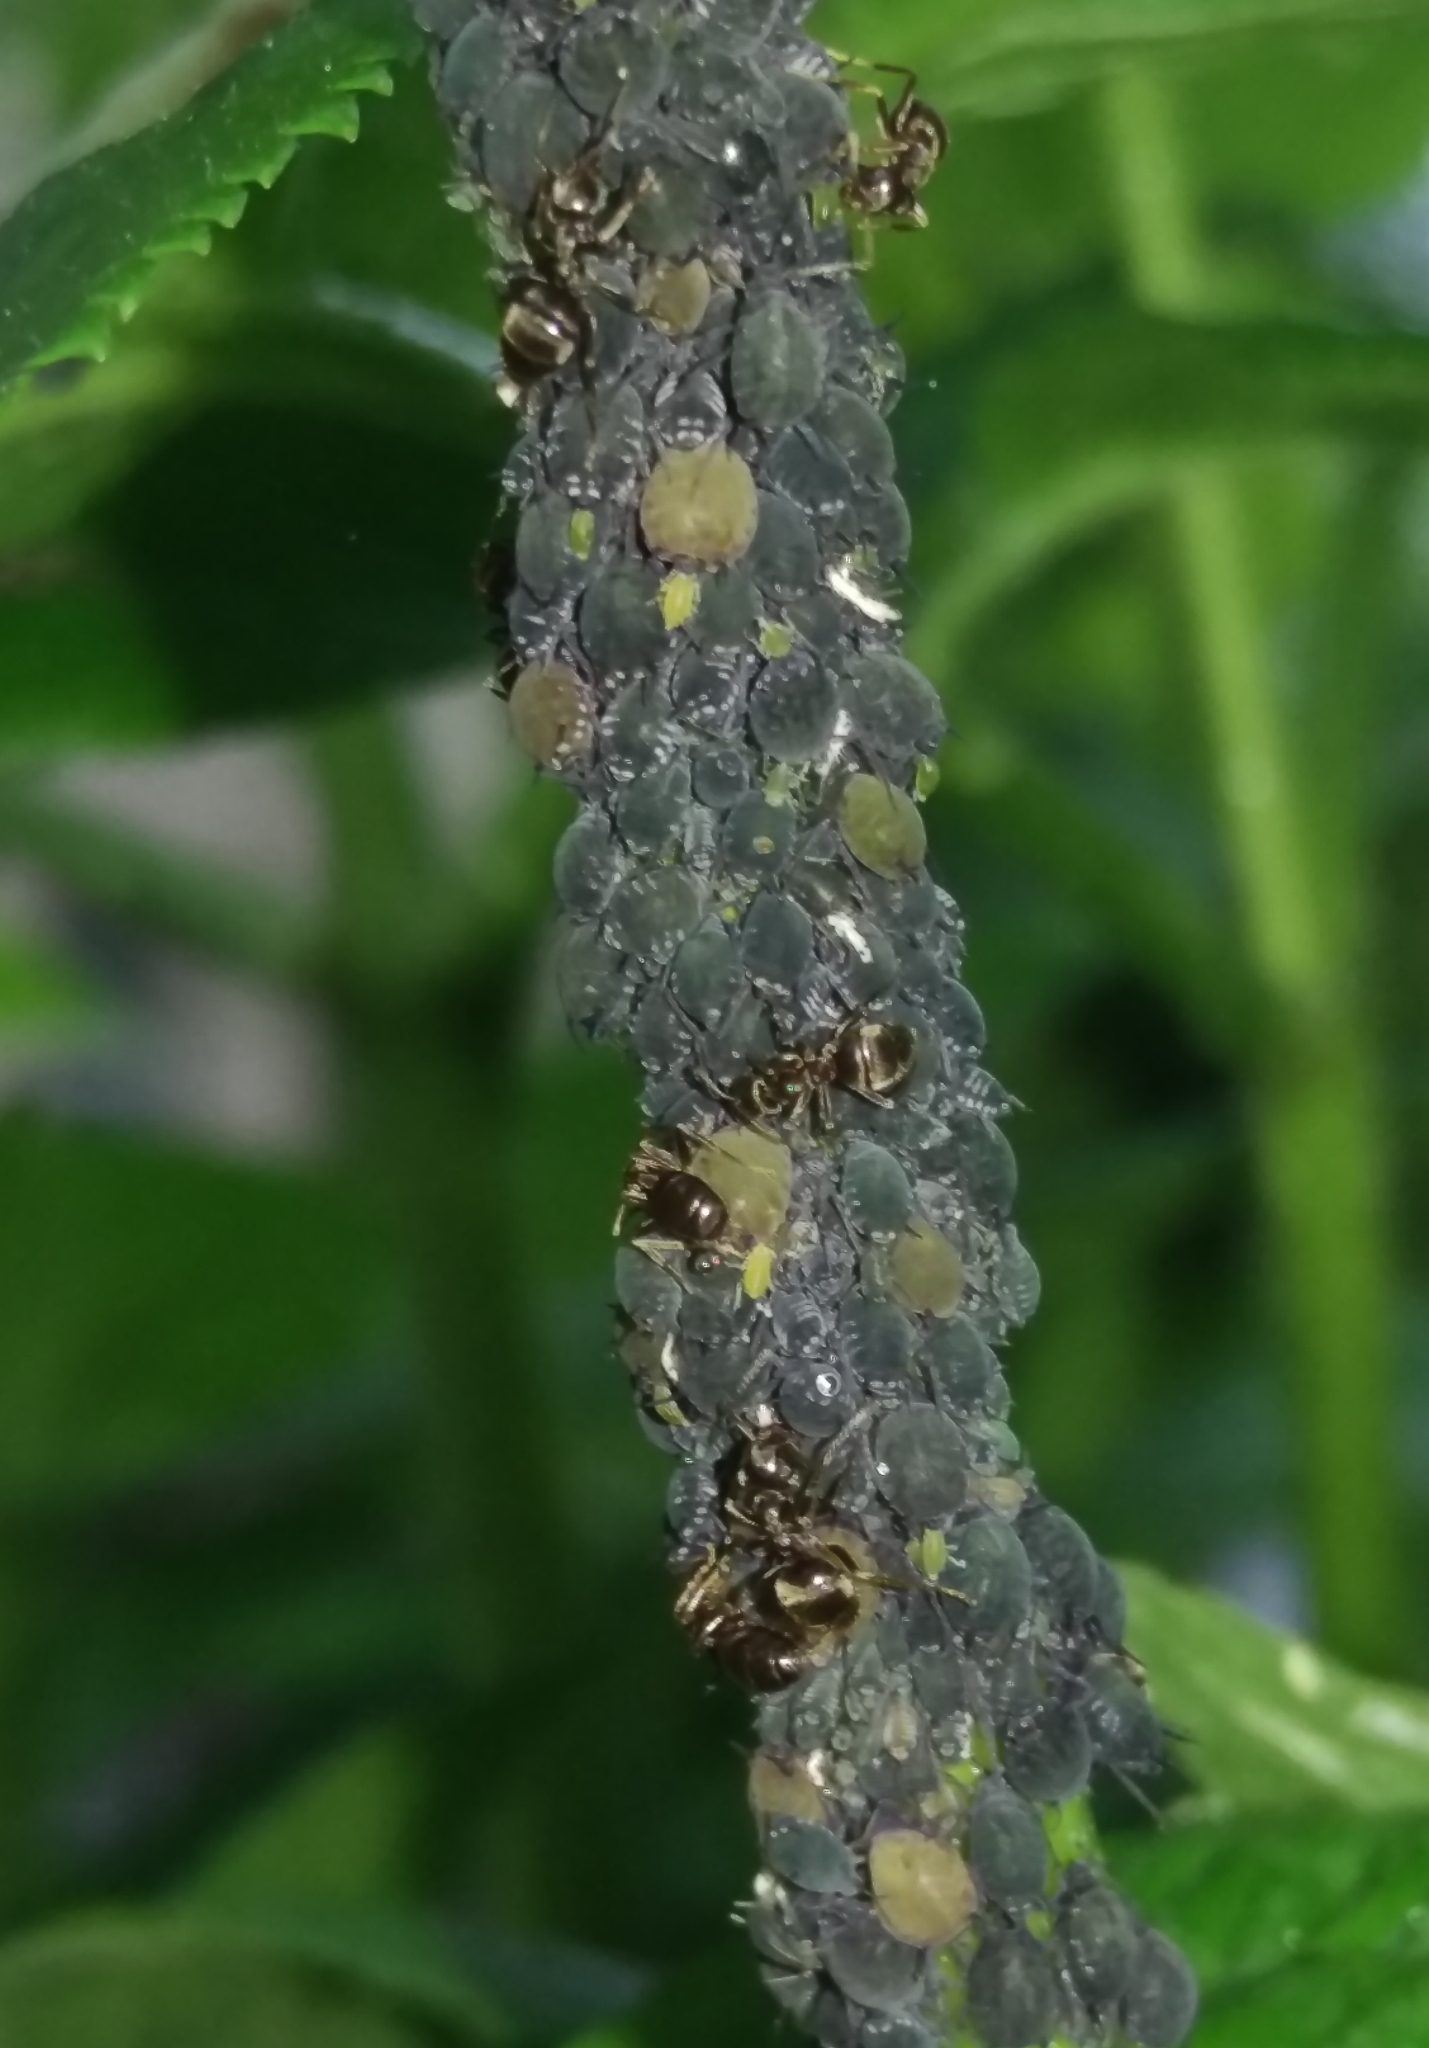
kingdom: Animalia
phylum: Arthropoda
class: Insecta
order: Hemiptera
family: Aphididae
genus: Aphis
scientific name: Aphis sambuci
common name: Elder aphid
